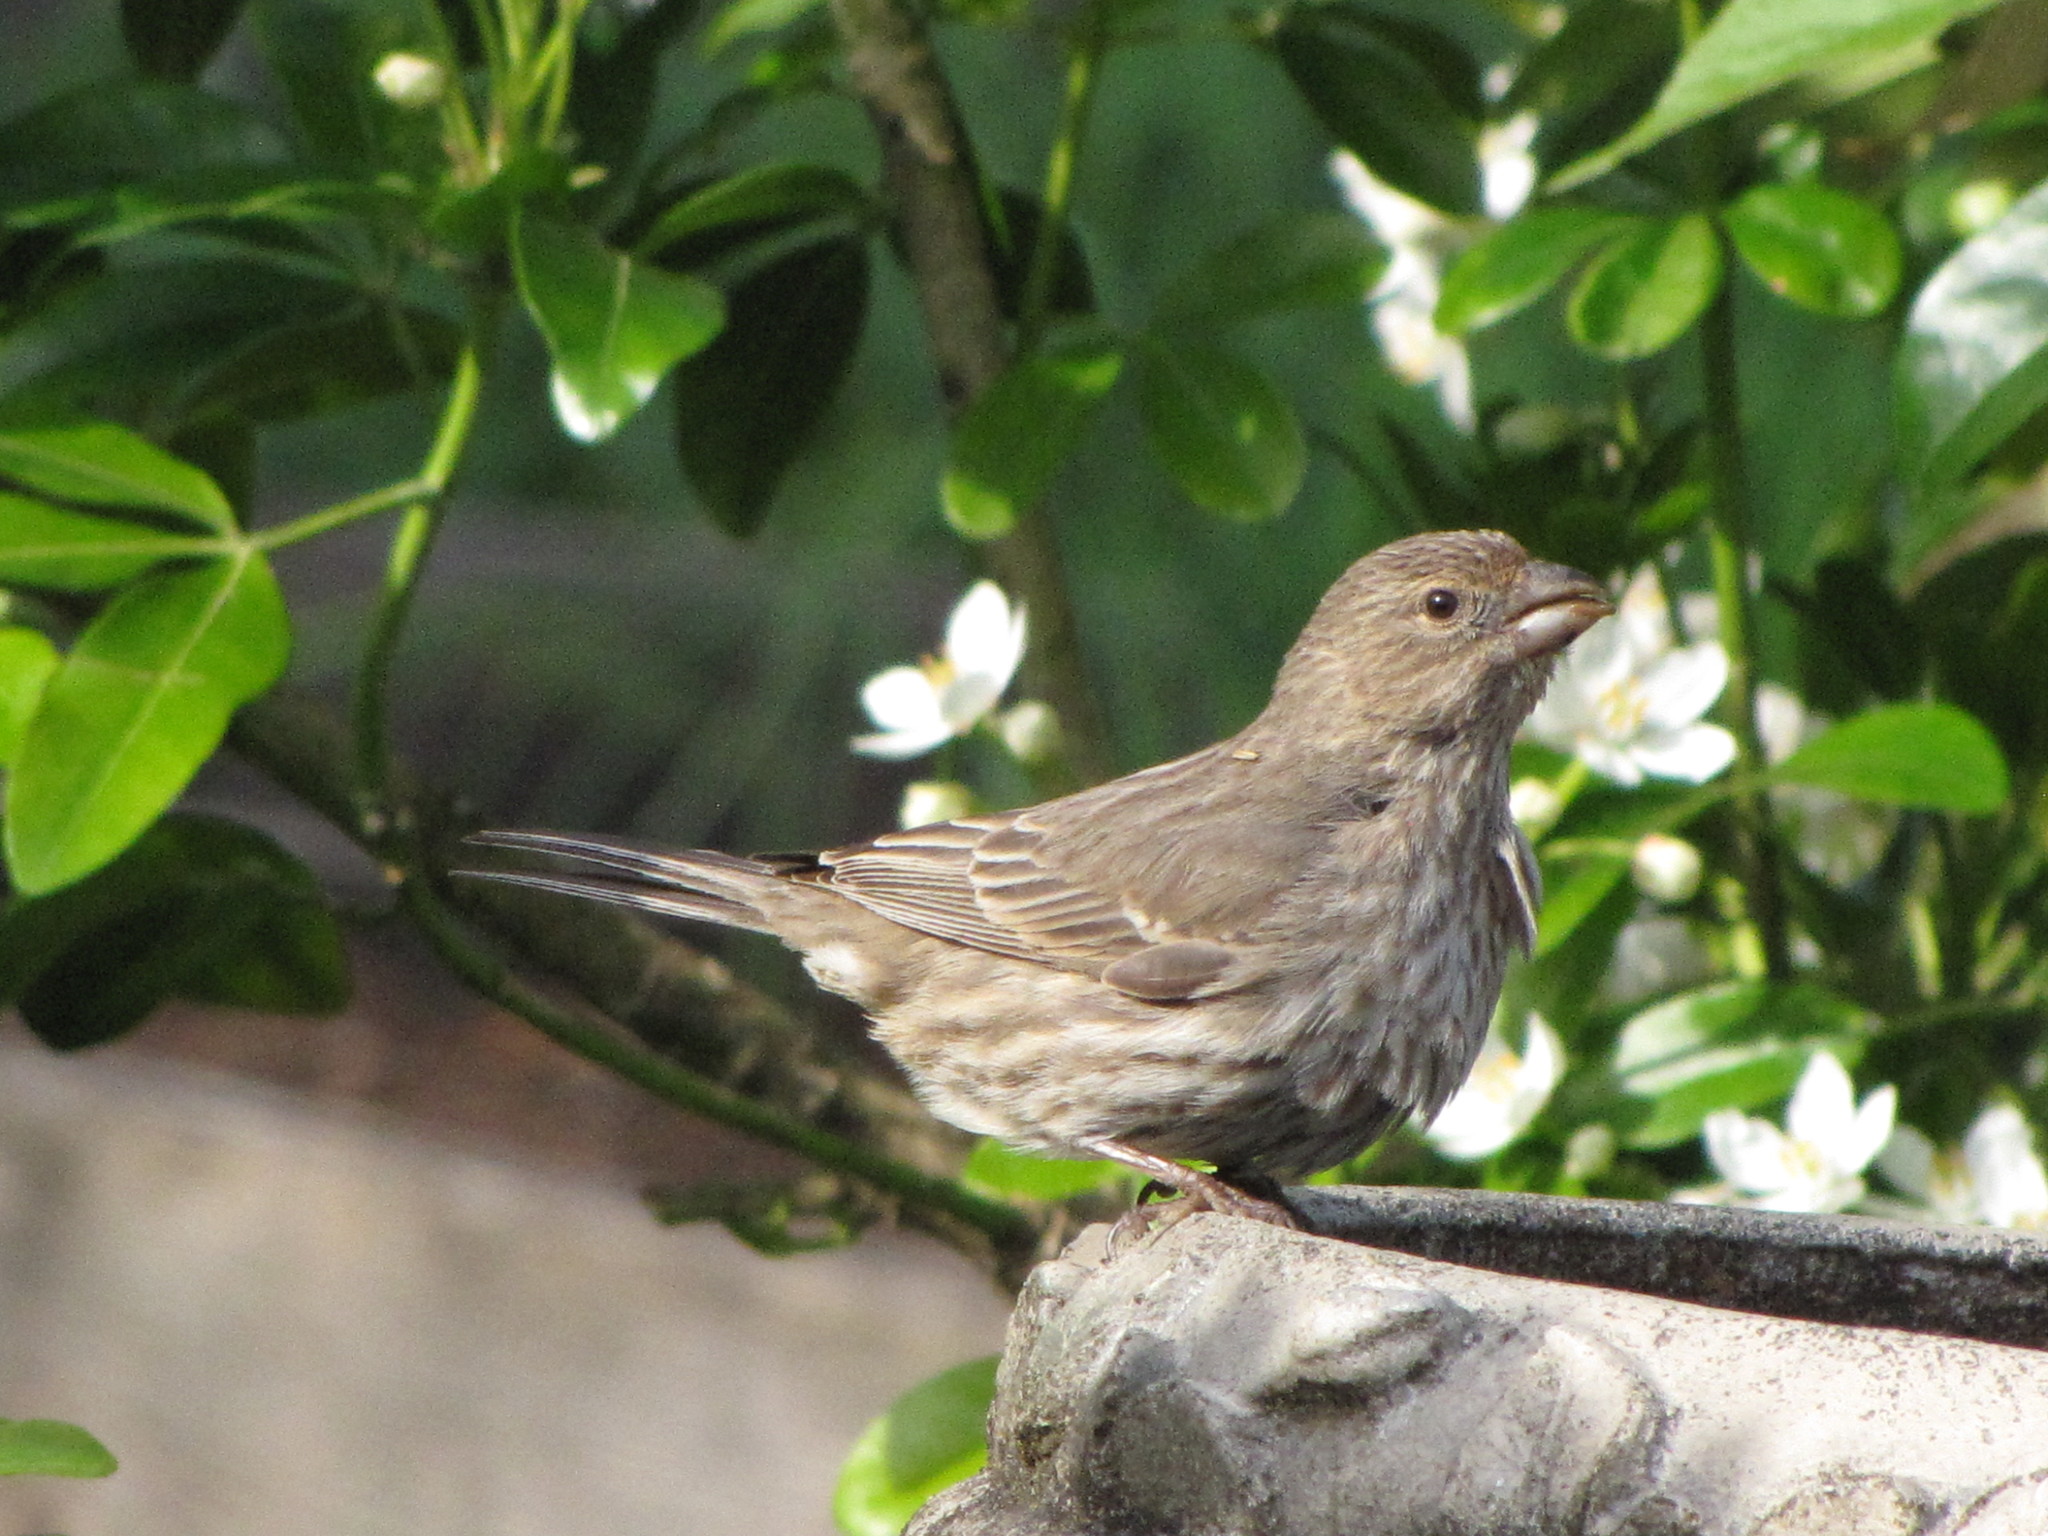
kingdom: Animalia
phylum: Chordata
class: Aves
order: Passeriformes
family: Fringillidae
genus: Haemorhous
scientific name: Haemorhous mexicanus
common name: House finch
